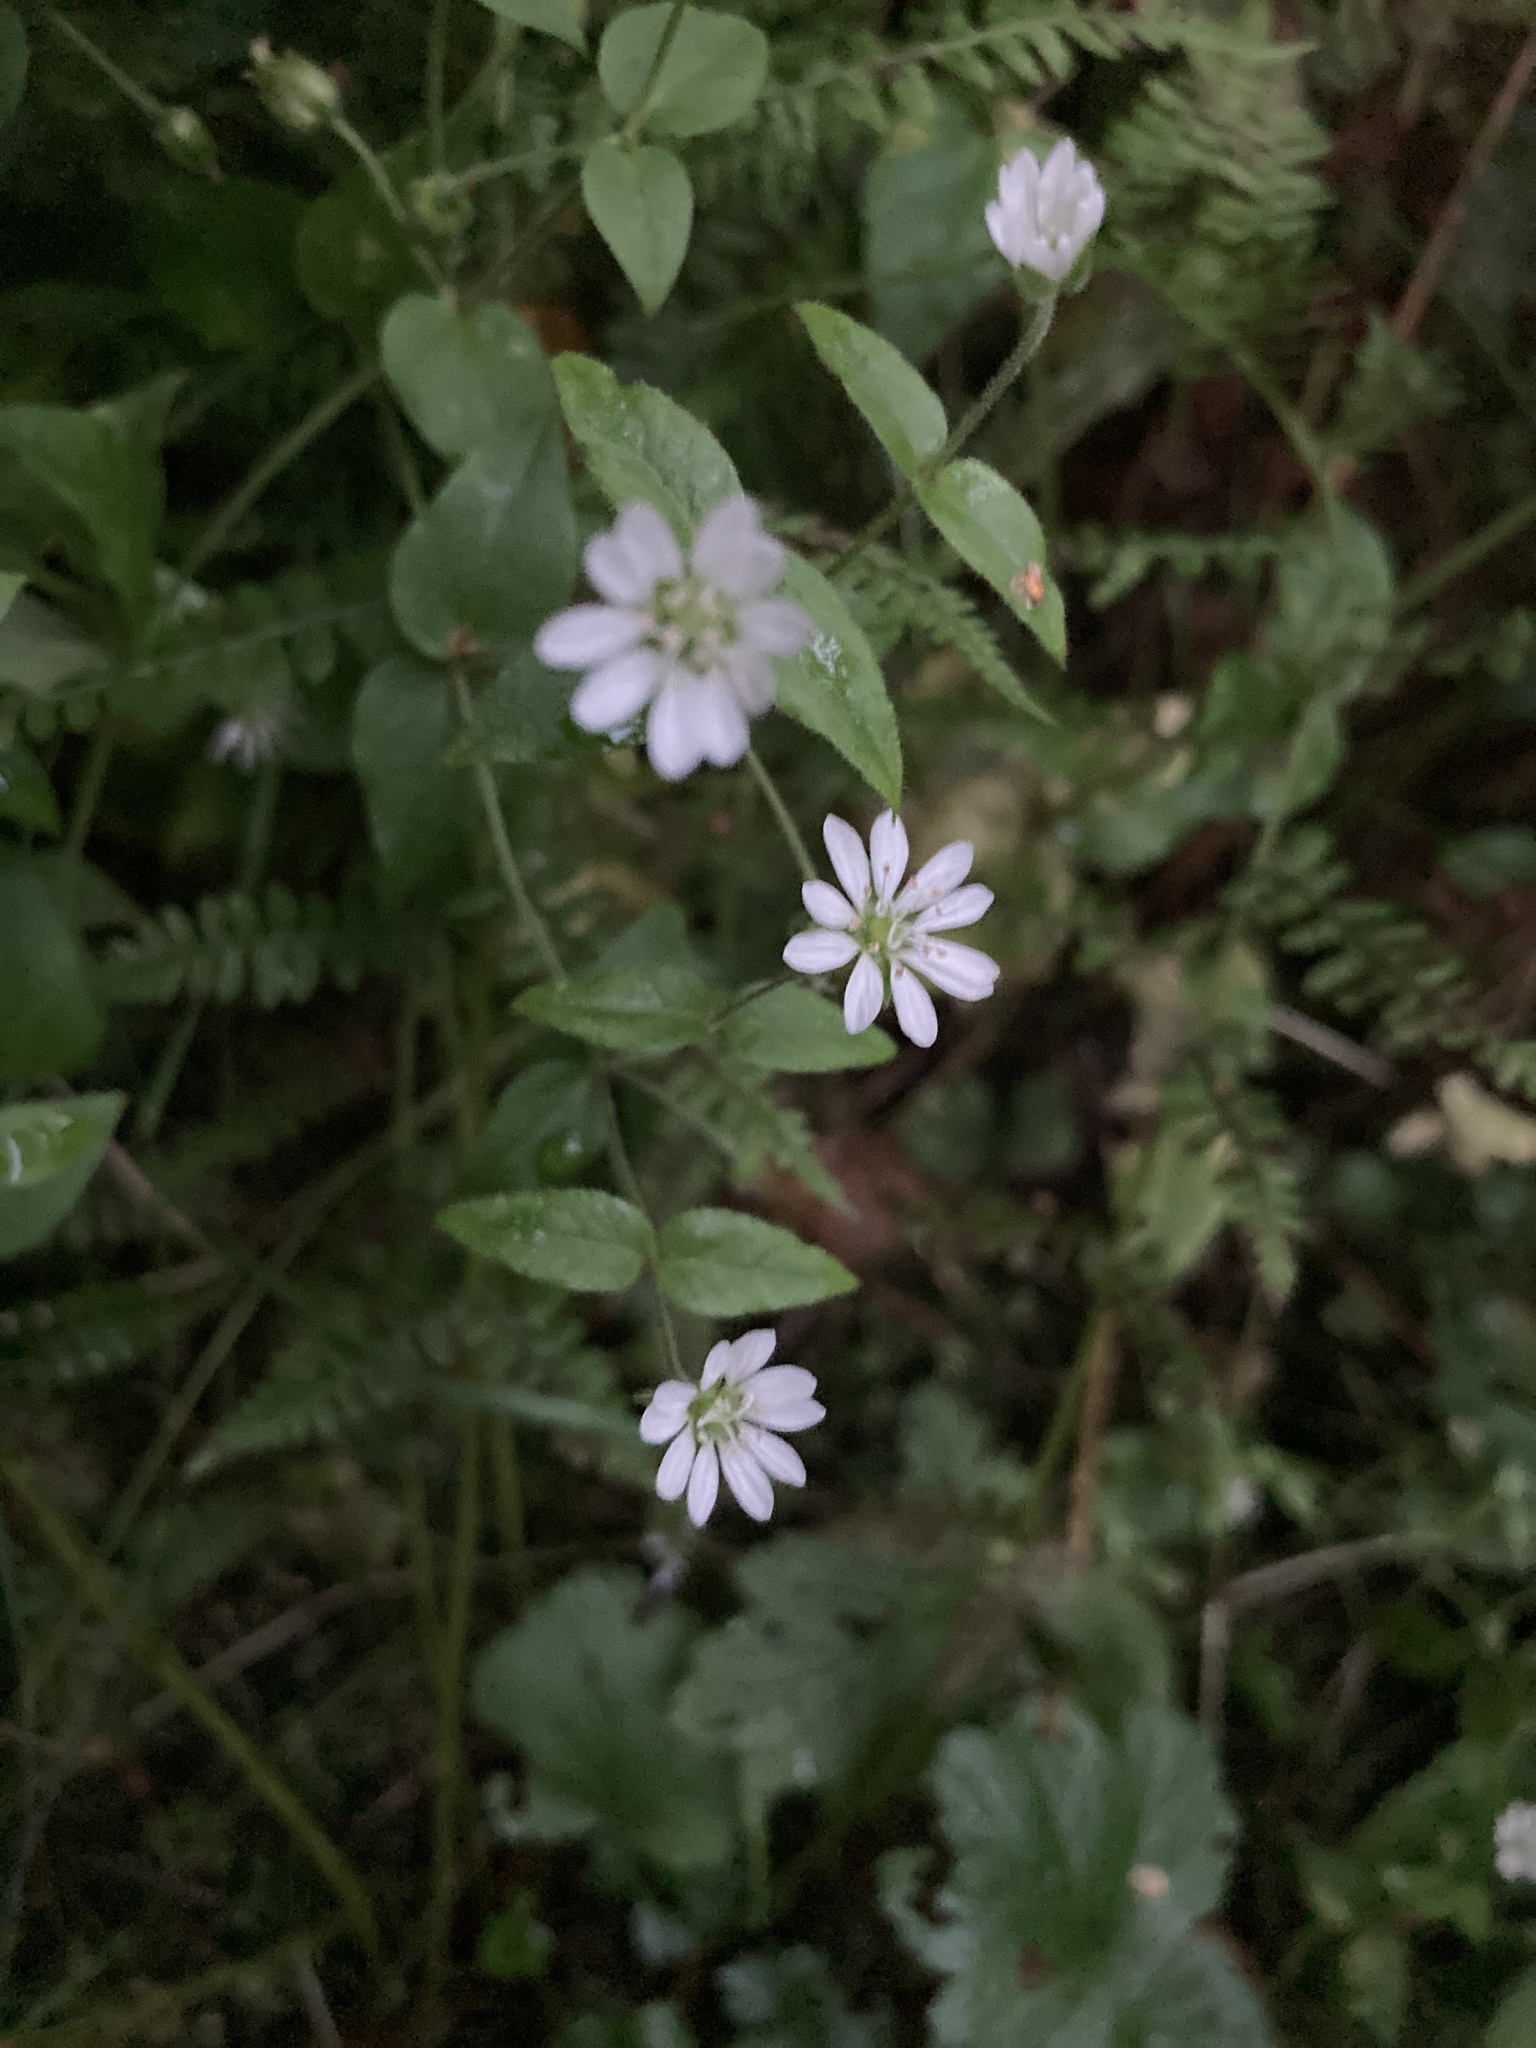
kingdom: Plantae
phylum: Tracheophyta
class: Magnoliopsida
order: Caryophyllales
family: Caryophyllaceae
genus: Stellaria
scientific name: Stellaria aquatica
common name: Water chickweed
